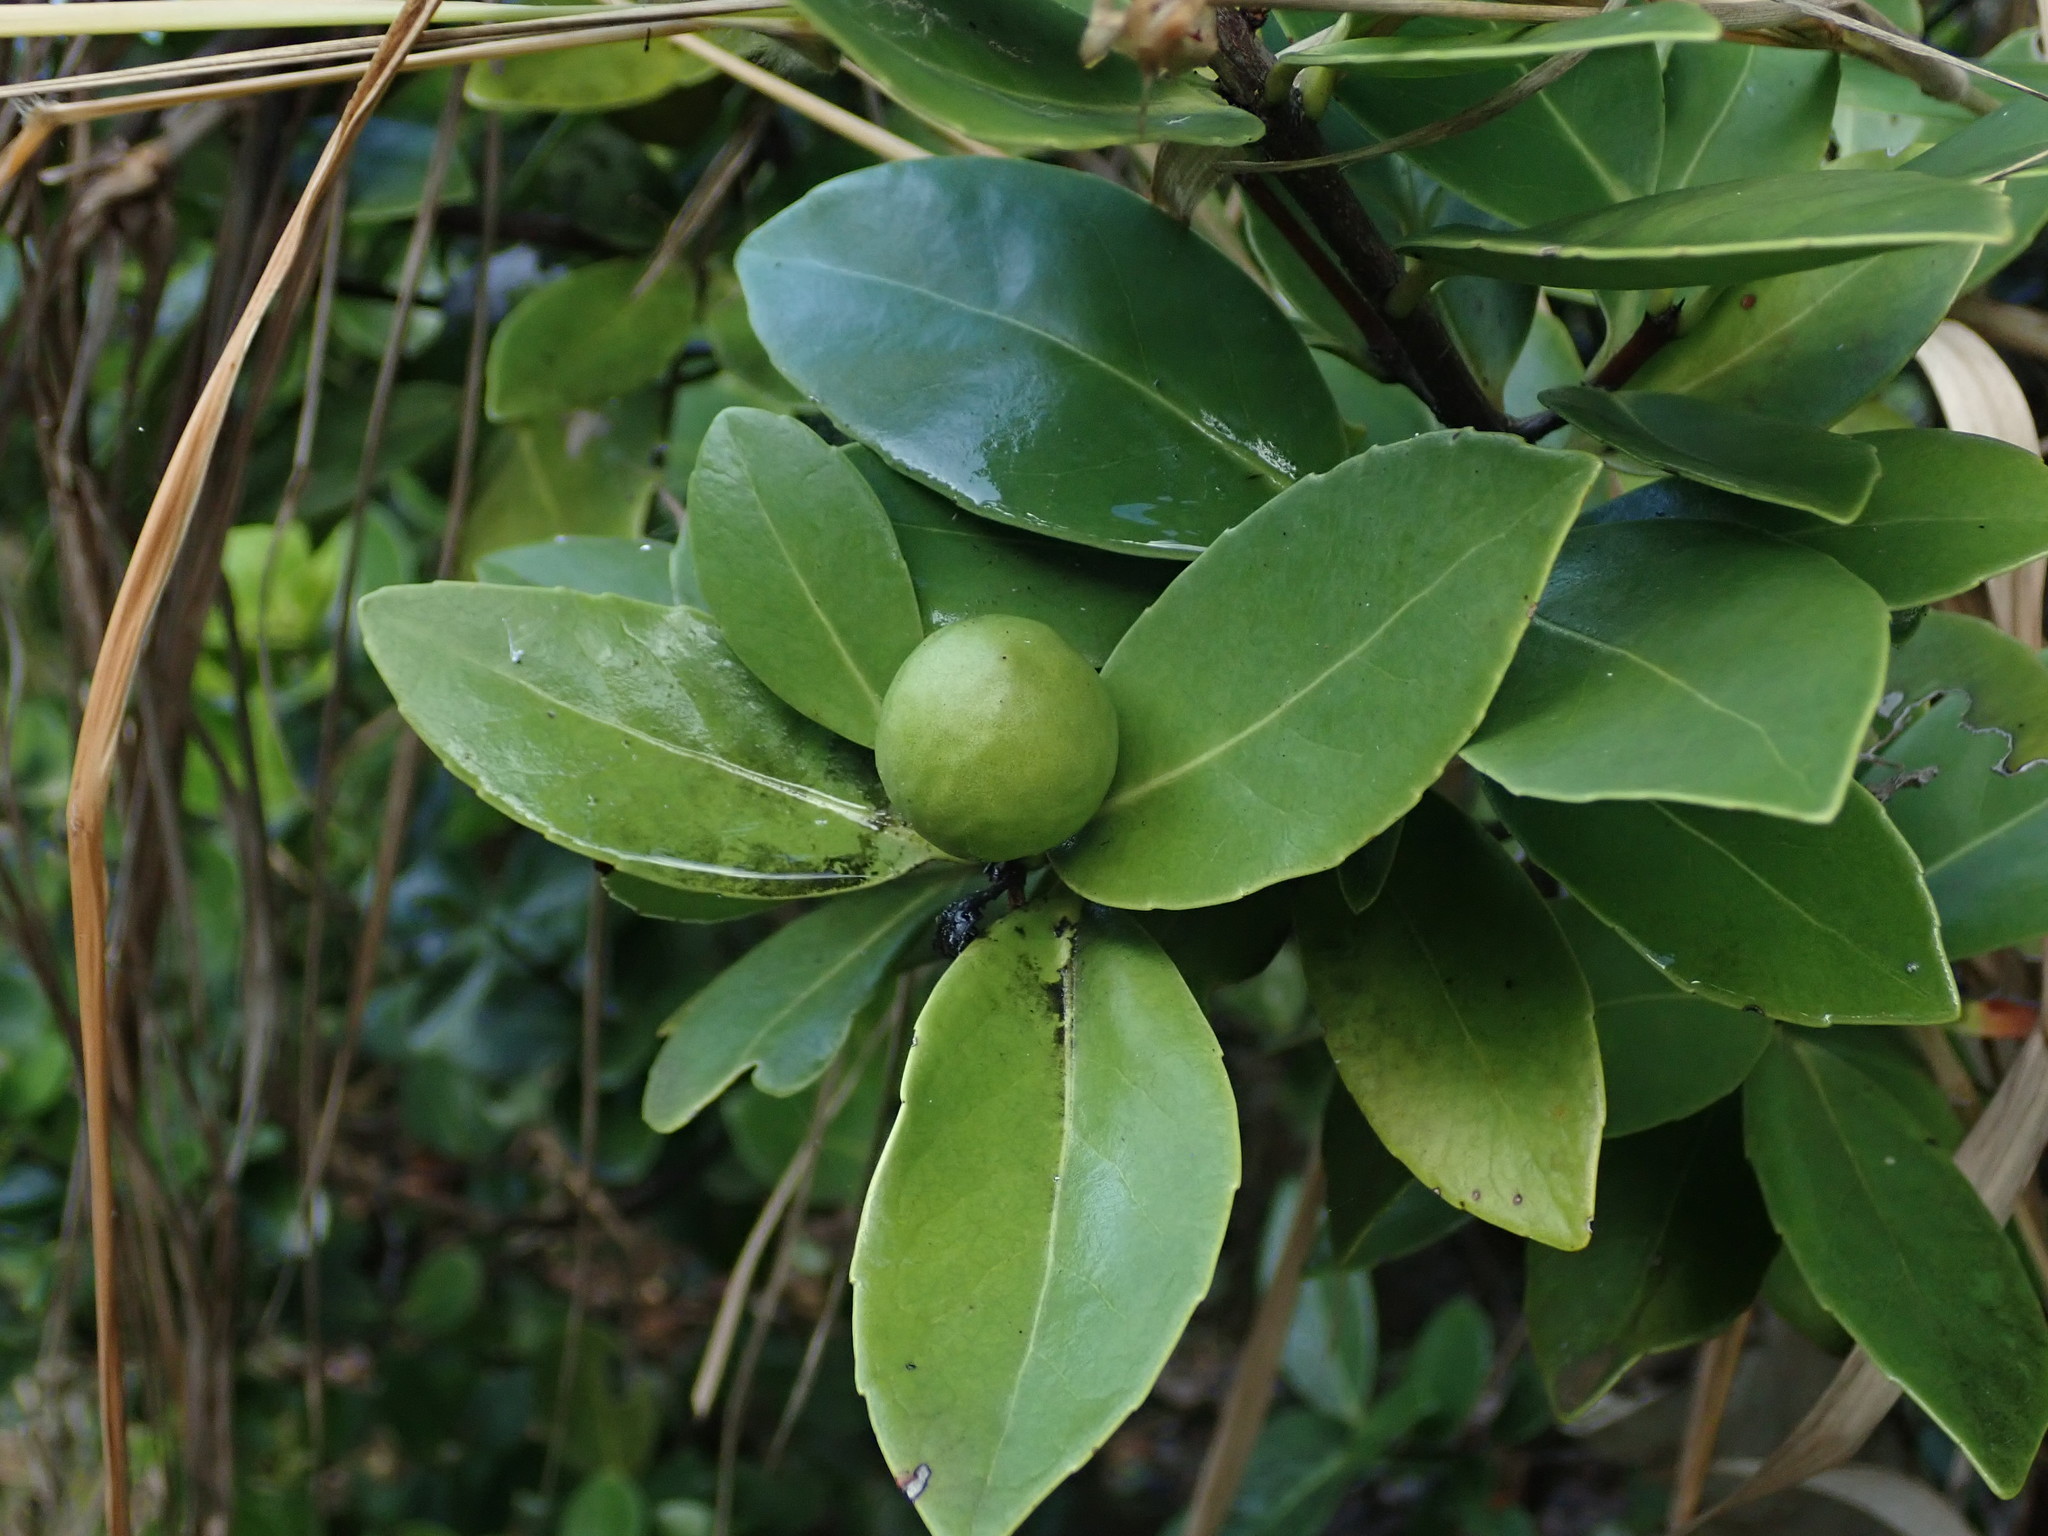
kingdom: Plantae
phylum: Tracheophyta
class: Magnoliopsida
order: Celastrales
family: Celastraceae
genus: Elaeodendron
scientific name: Elaeodendron xylocarpum
